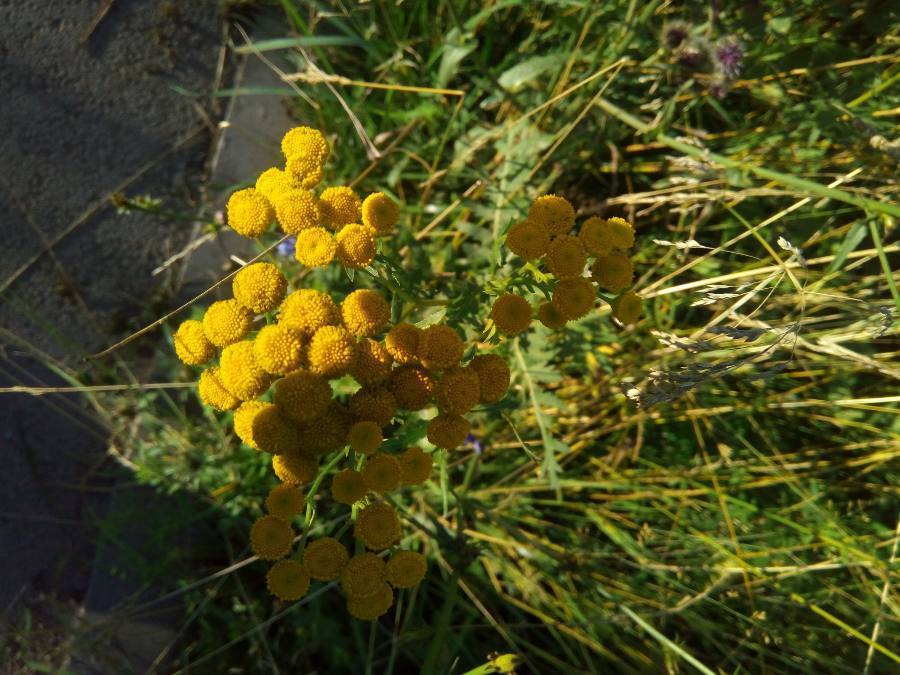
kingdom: Plantae
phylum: Tracheophyta
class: Magnoliopsida
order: Asterales
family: Asteraceae
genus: Tanacetum
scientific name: Tanacetum vulgare
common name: Common tansy
